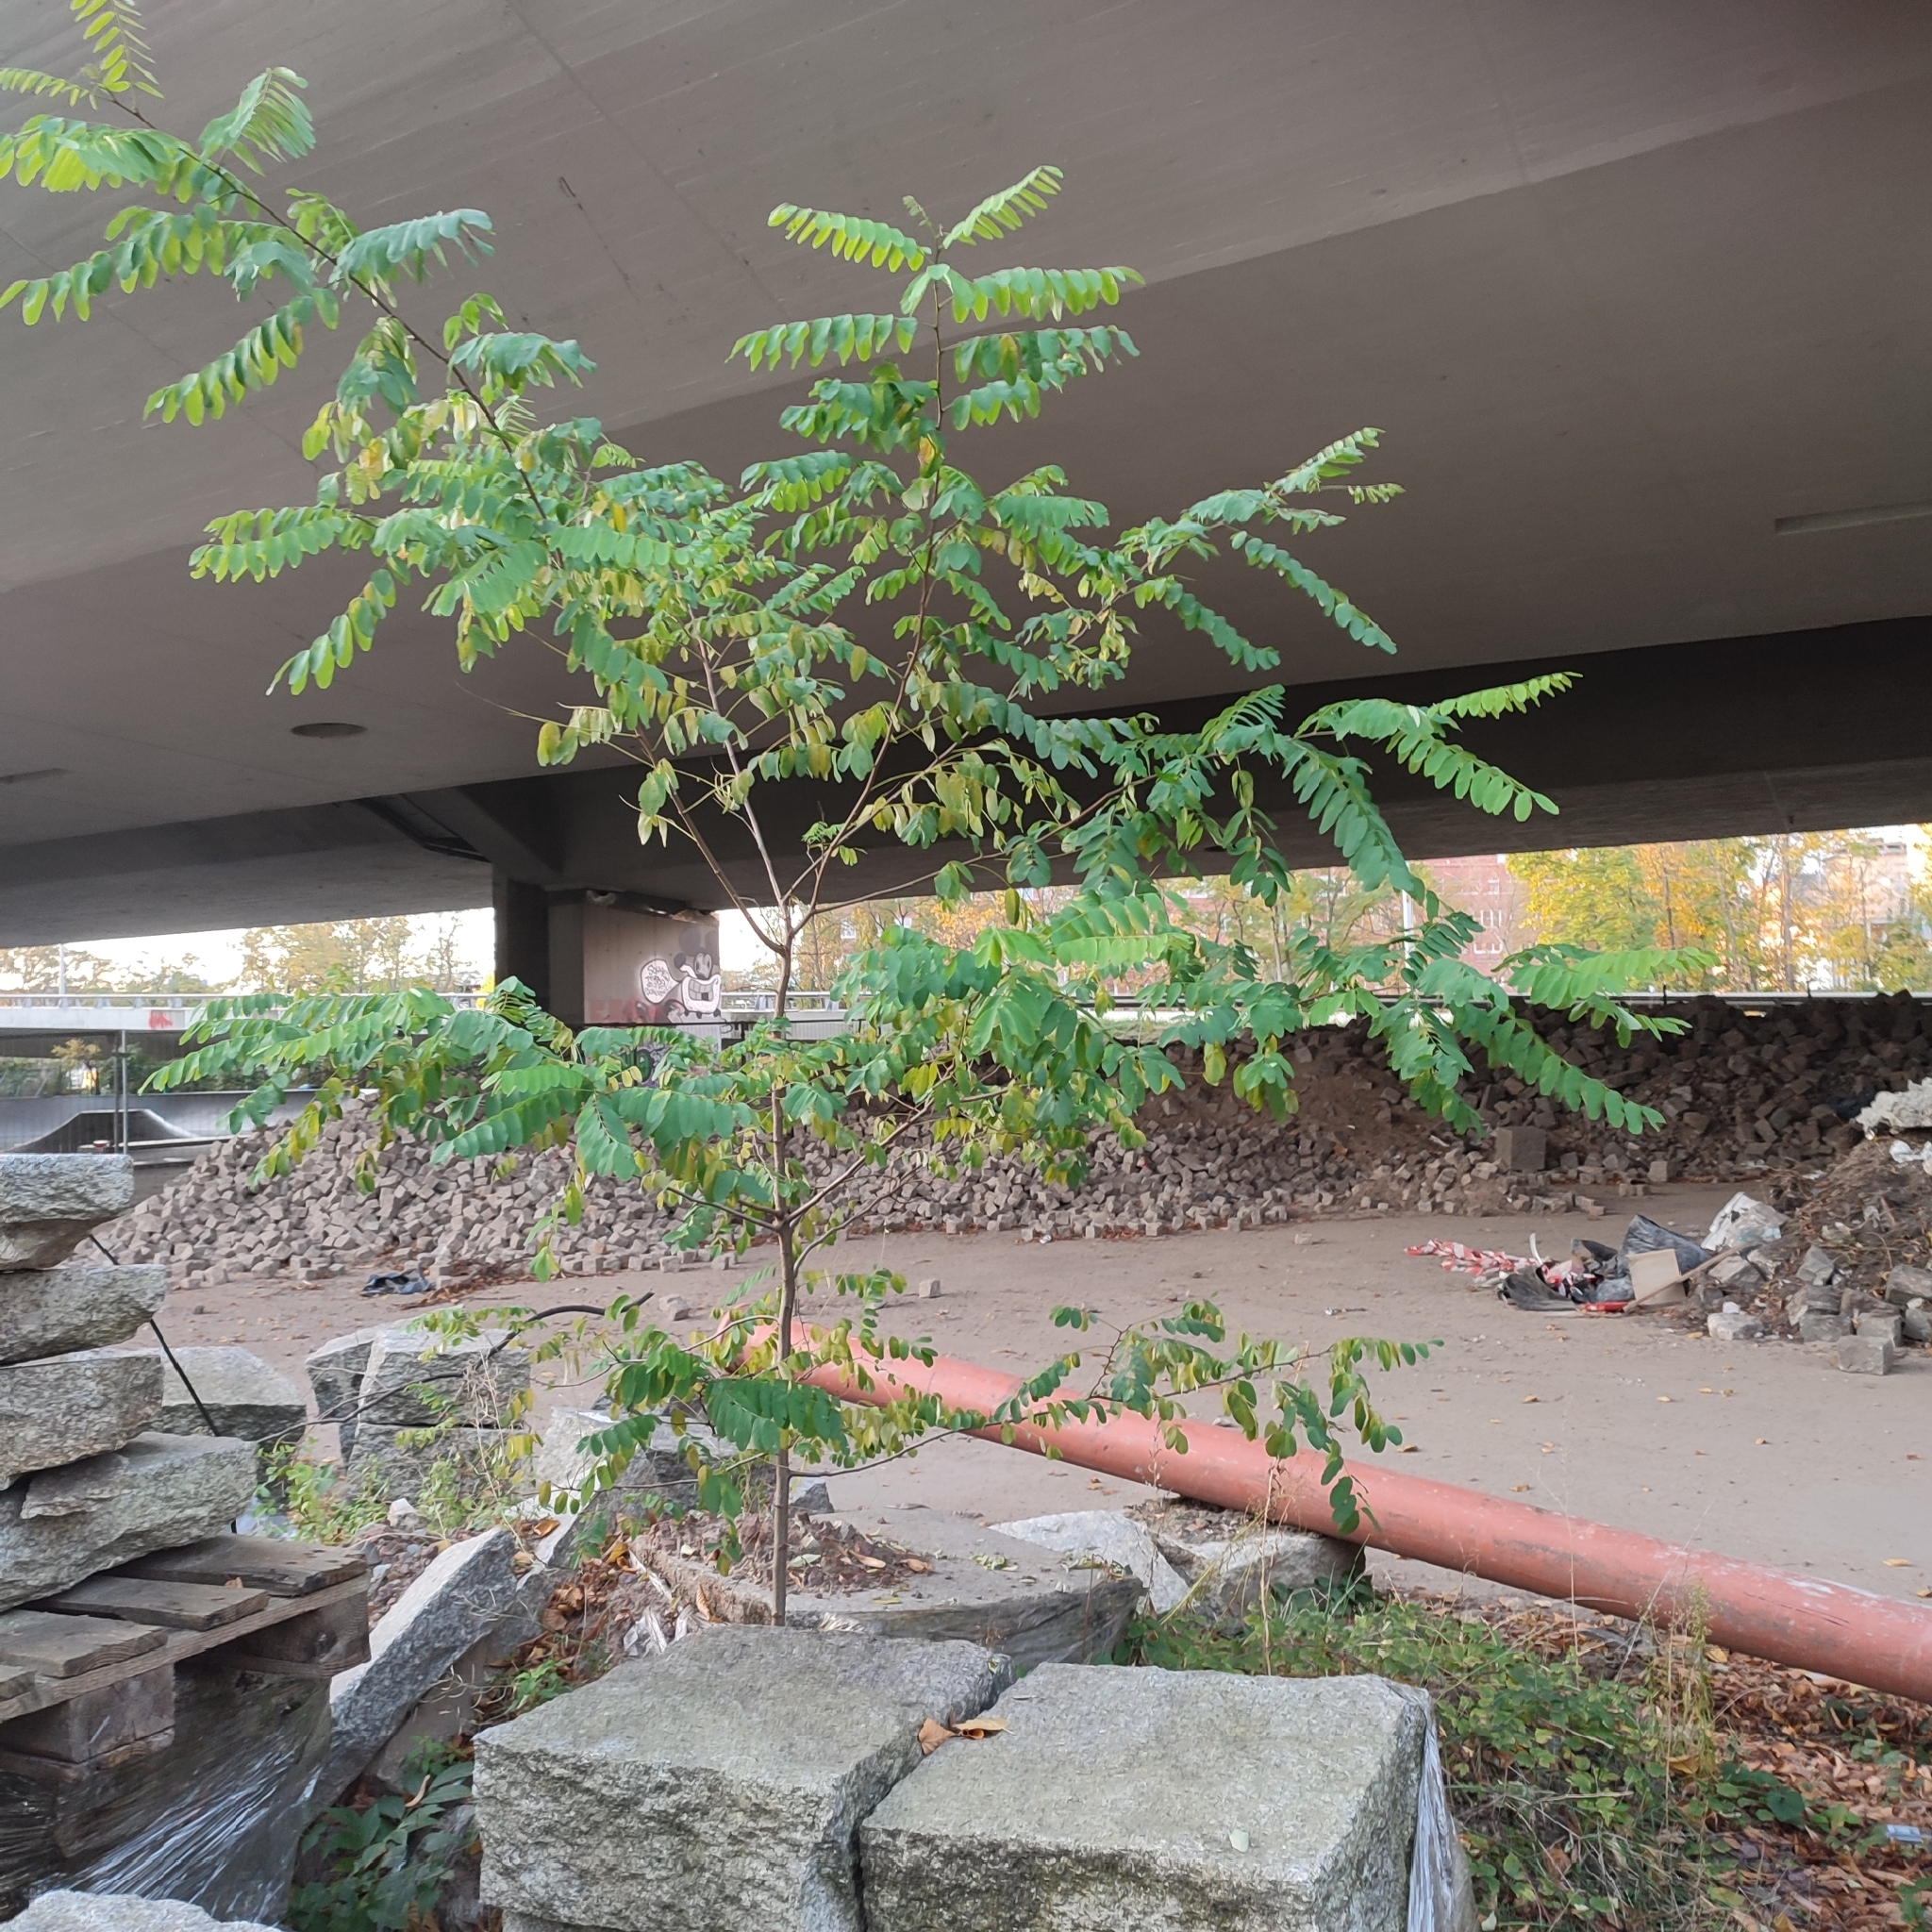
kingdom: Plantae
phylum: Tracheophyta
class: Magnoliopsida
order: Fabales
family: Fabaceae
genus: Robinia
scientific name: Robinia pseudoacacia
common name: Black locust
